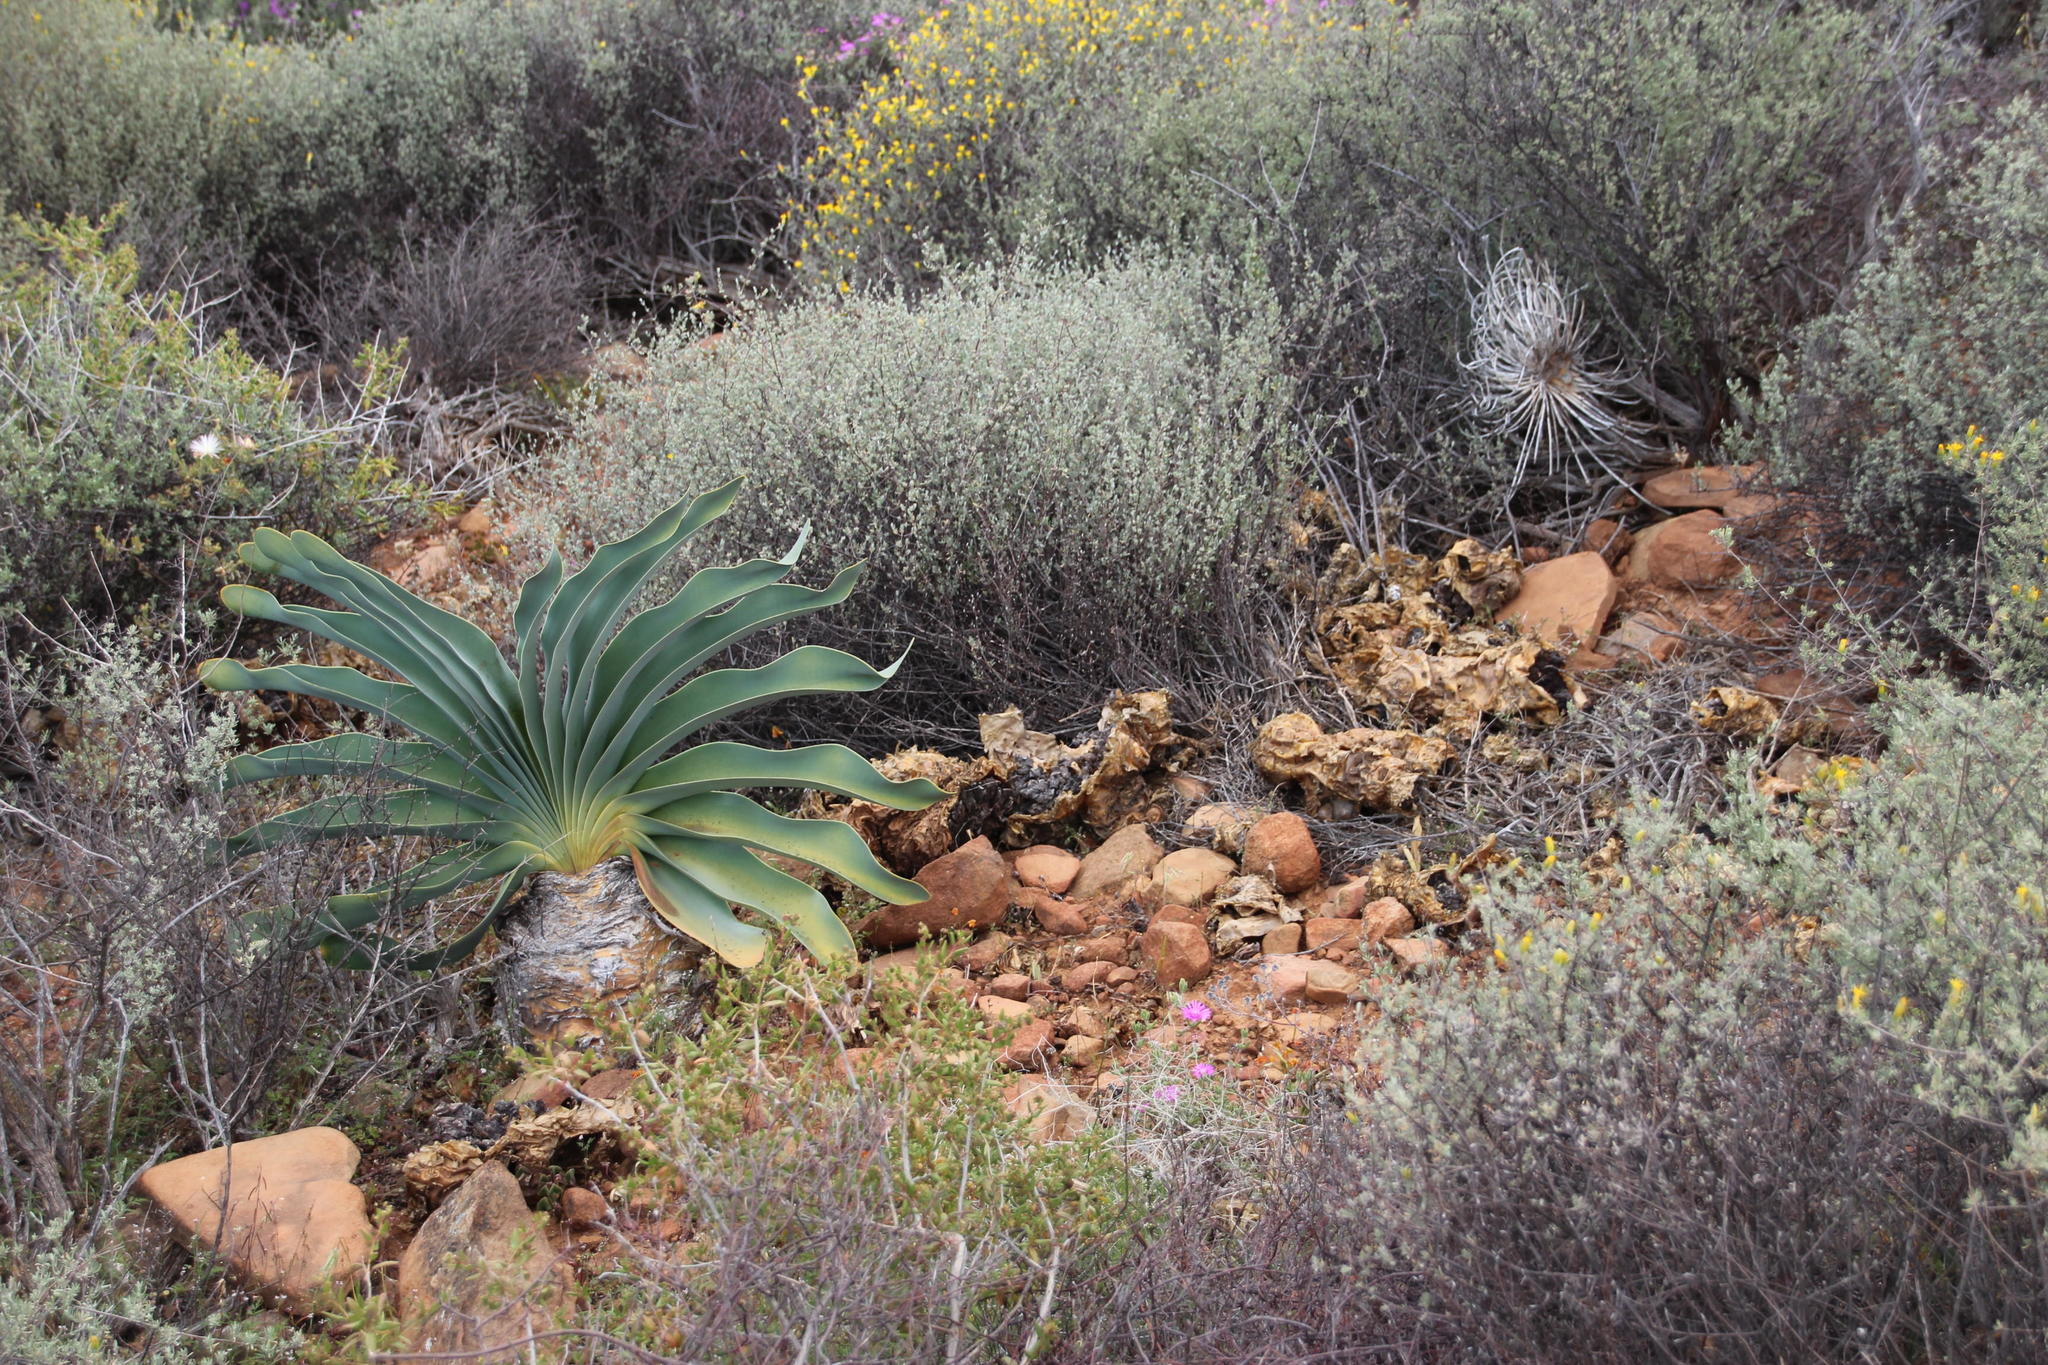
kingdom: Plantae
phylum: Tracheophyta
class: Liliopsida
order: Asparagales
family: Amaryllidaceae
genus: Boophone
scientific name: Boophone disticha
